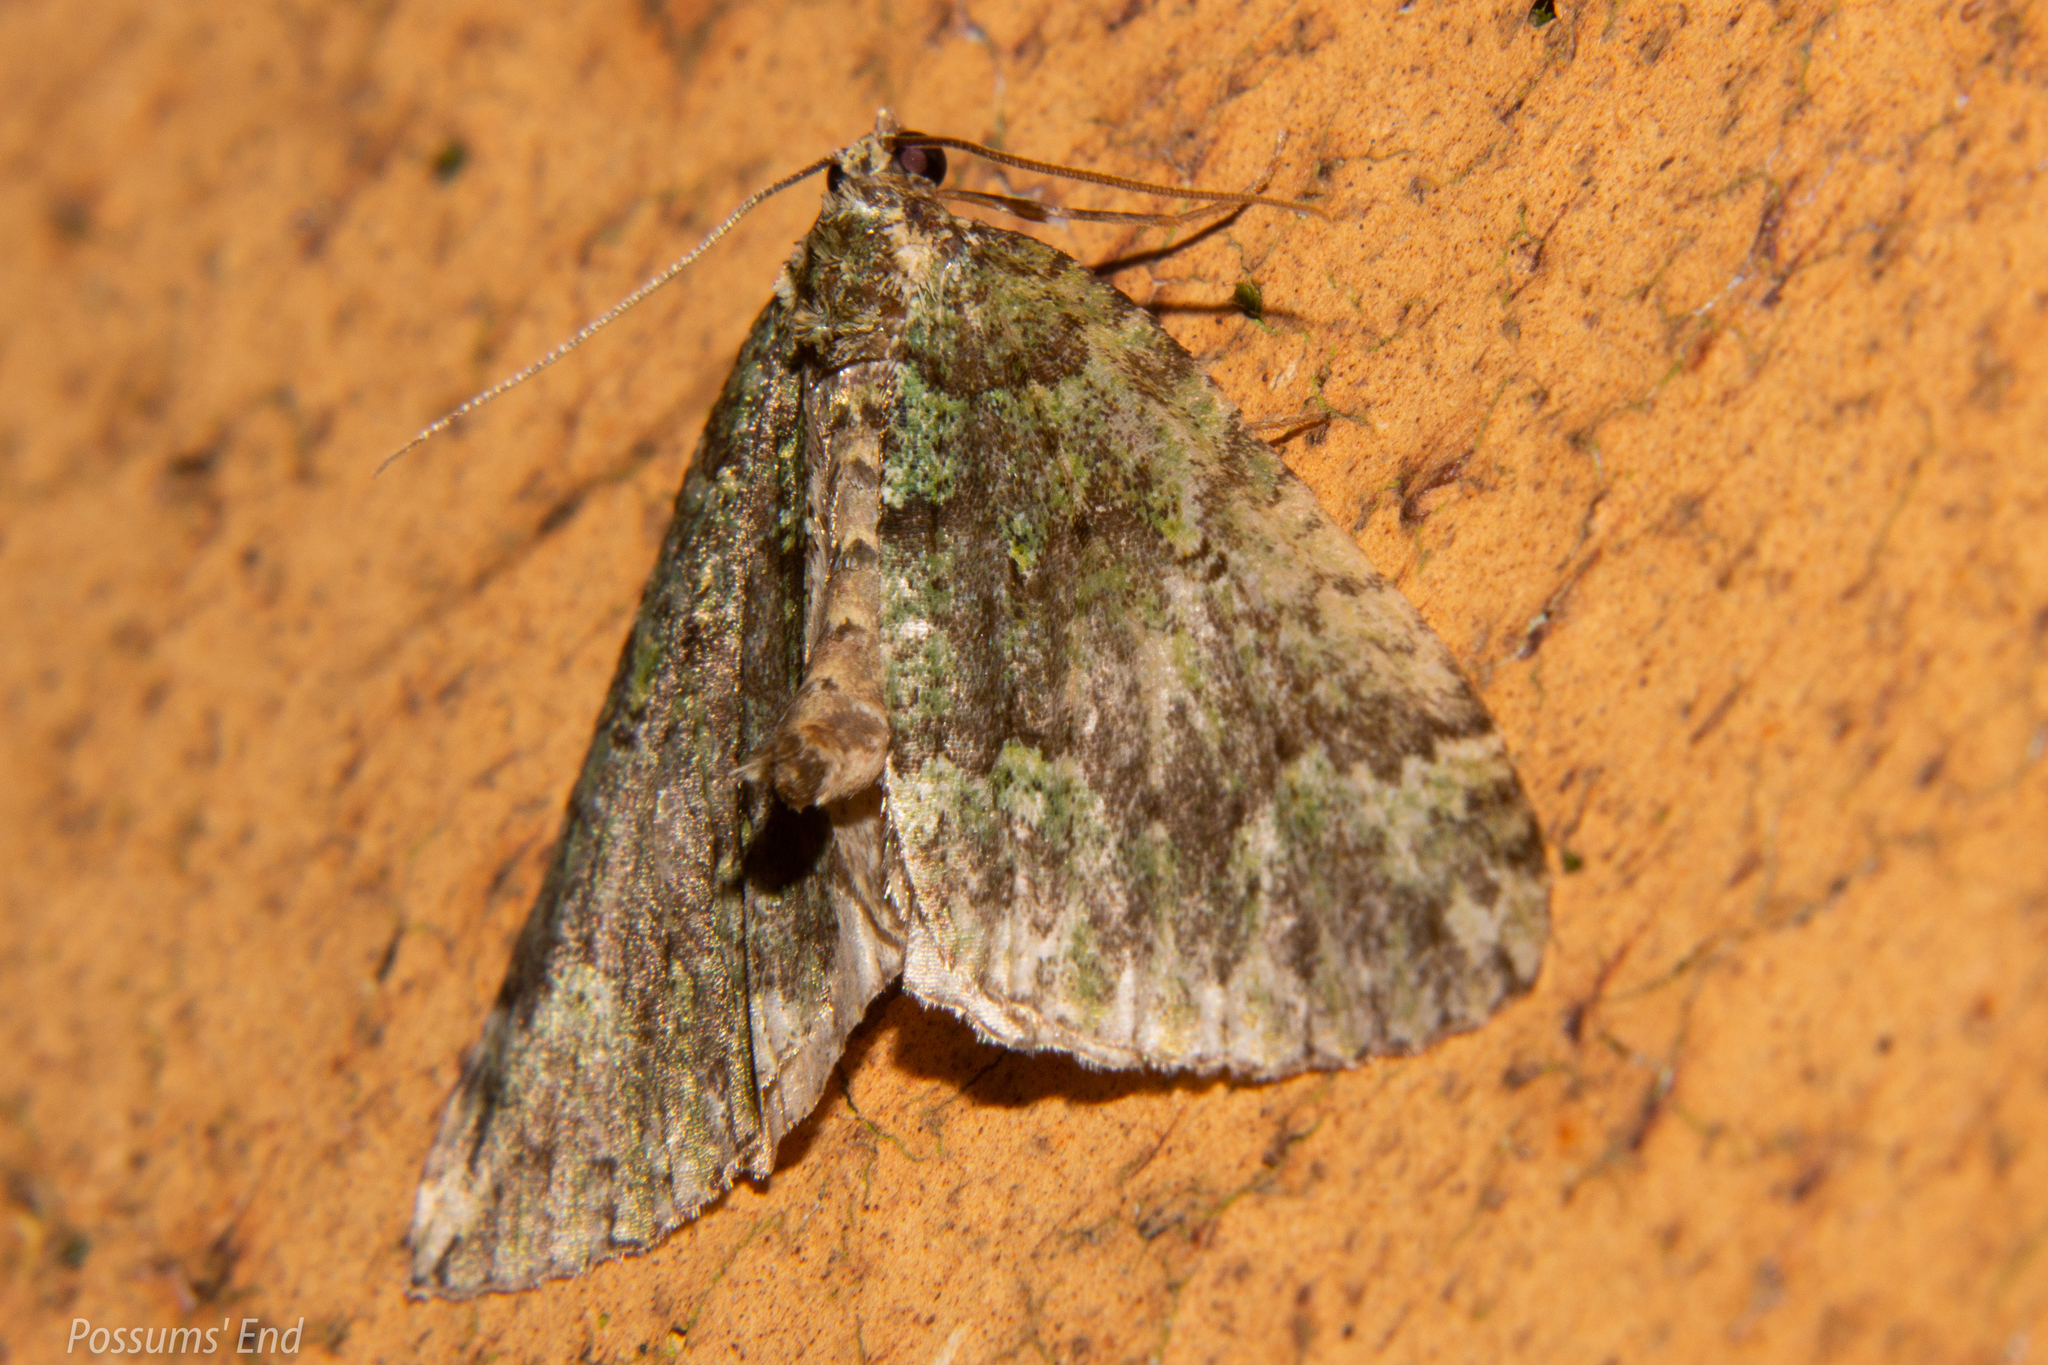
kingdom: Animalia
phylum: Arthropoda
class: Insecta
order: Lepidoptera
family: Geometridae
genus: Austrocidaria
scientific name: Austrocidaria callichlora
